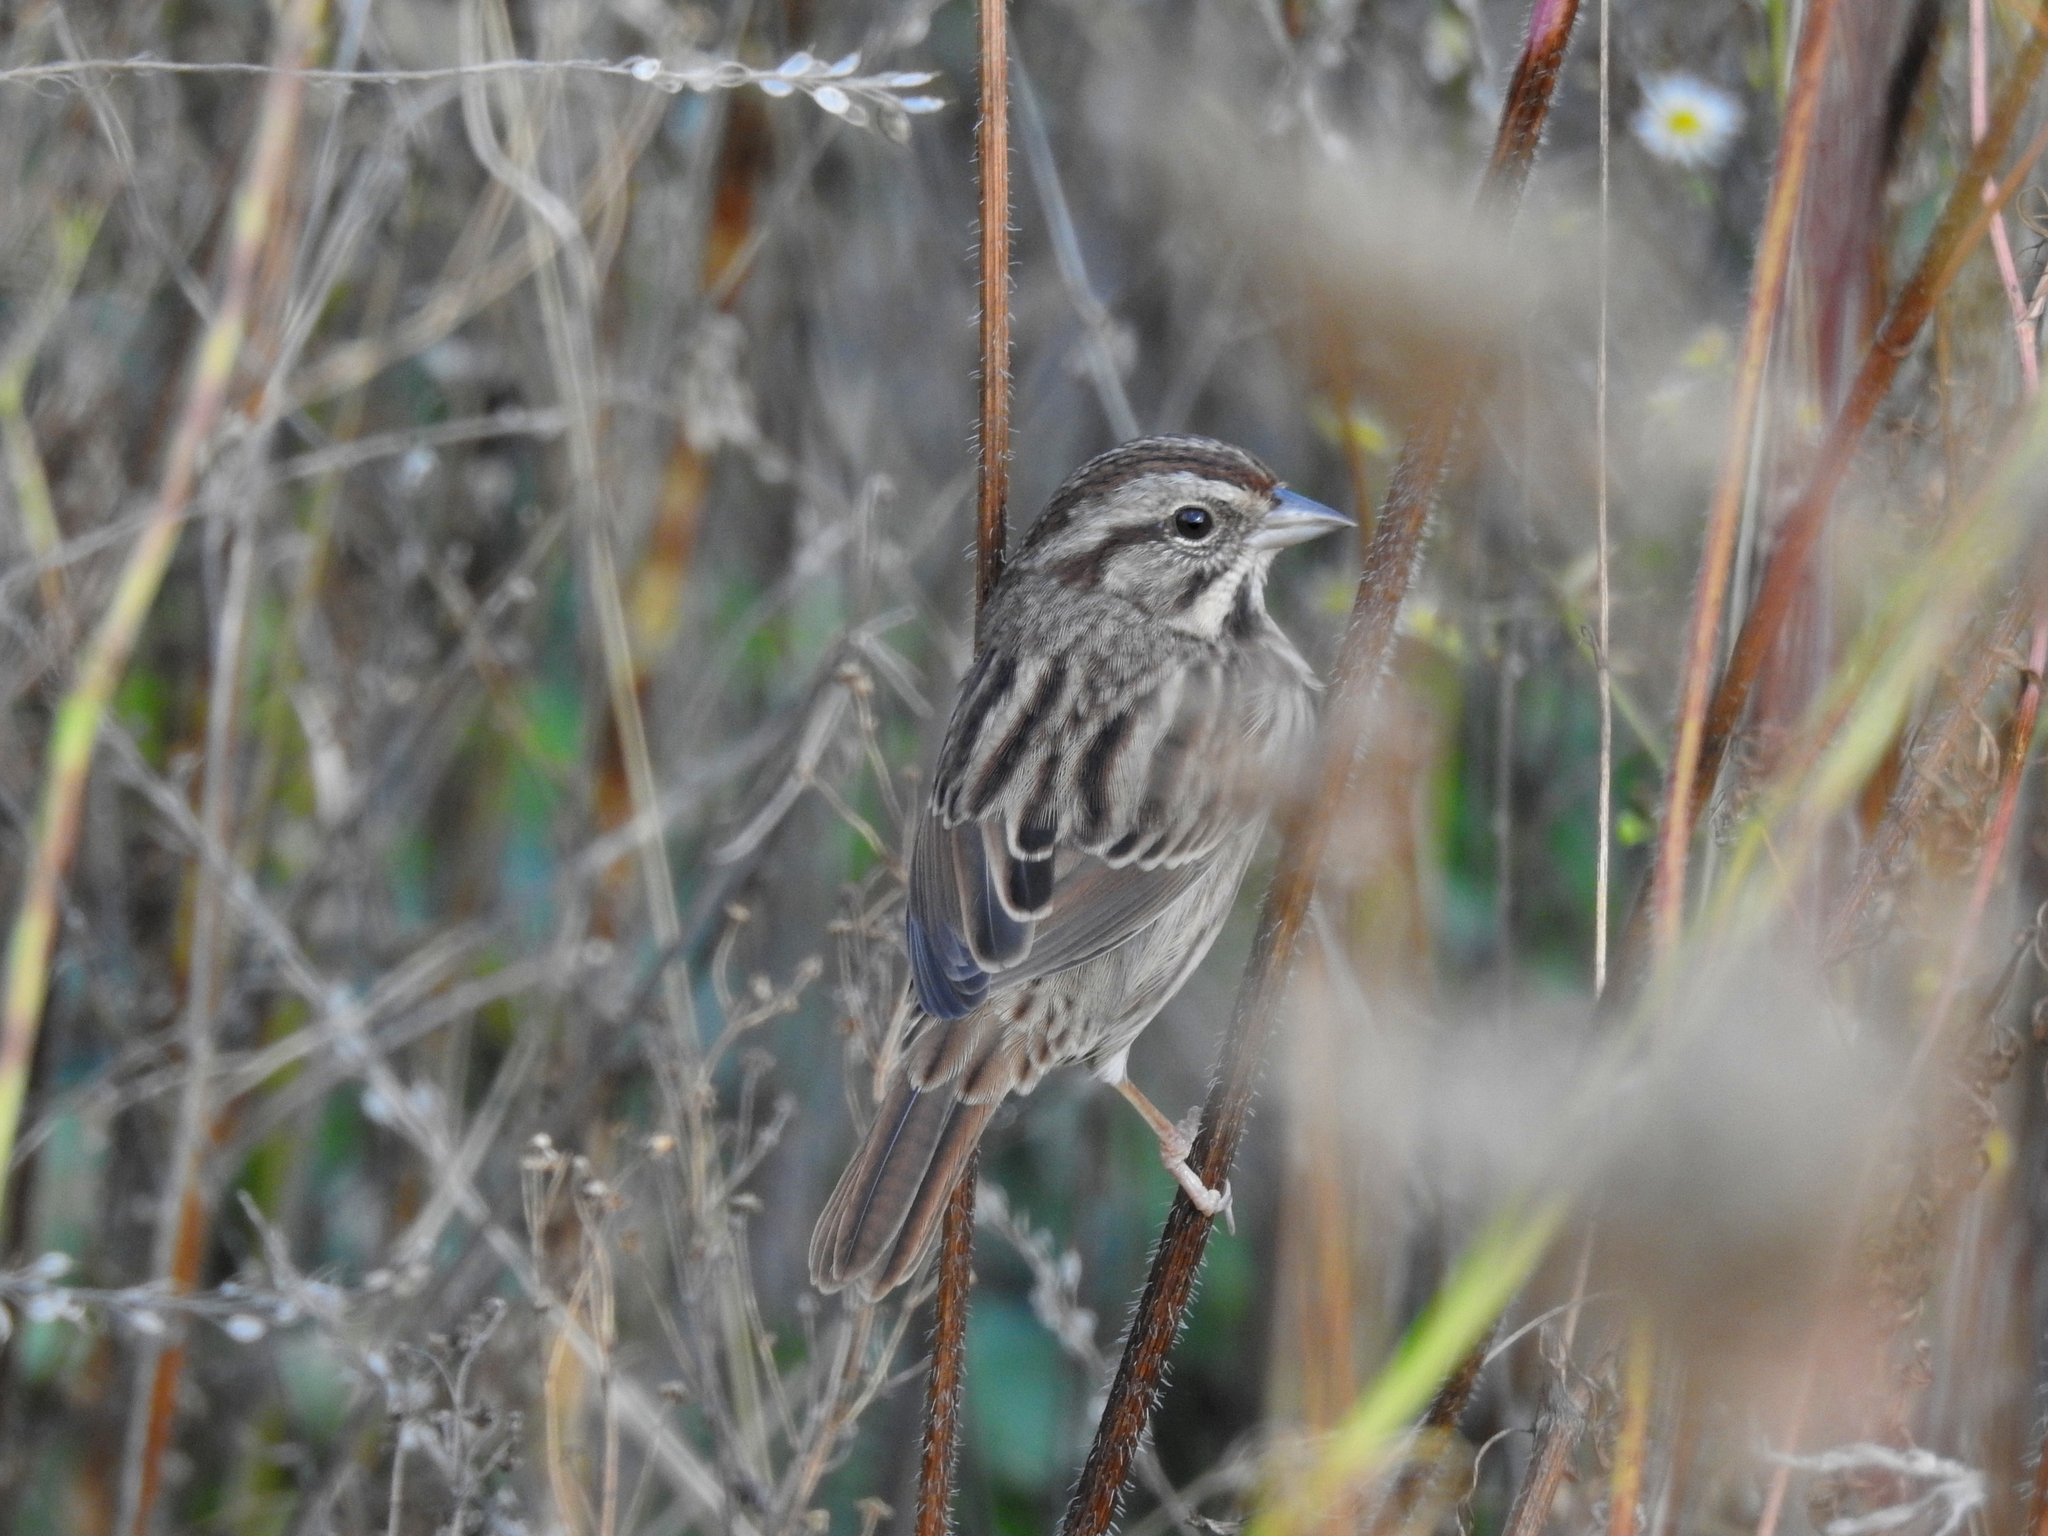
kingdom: Animalia
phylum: Chordata
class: Aves
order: Passeriformes
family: Passerellidae
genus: Melospiza
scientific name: Melospiza melodia
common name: Song sparrow
